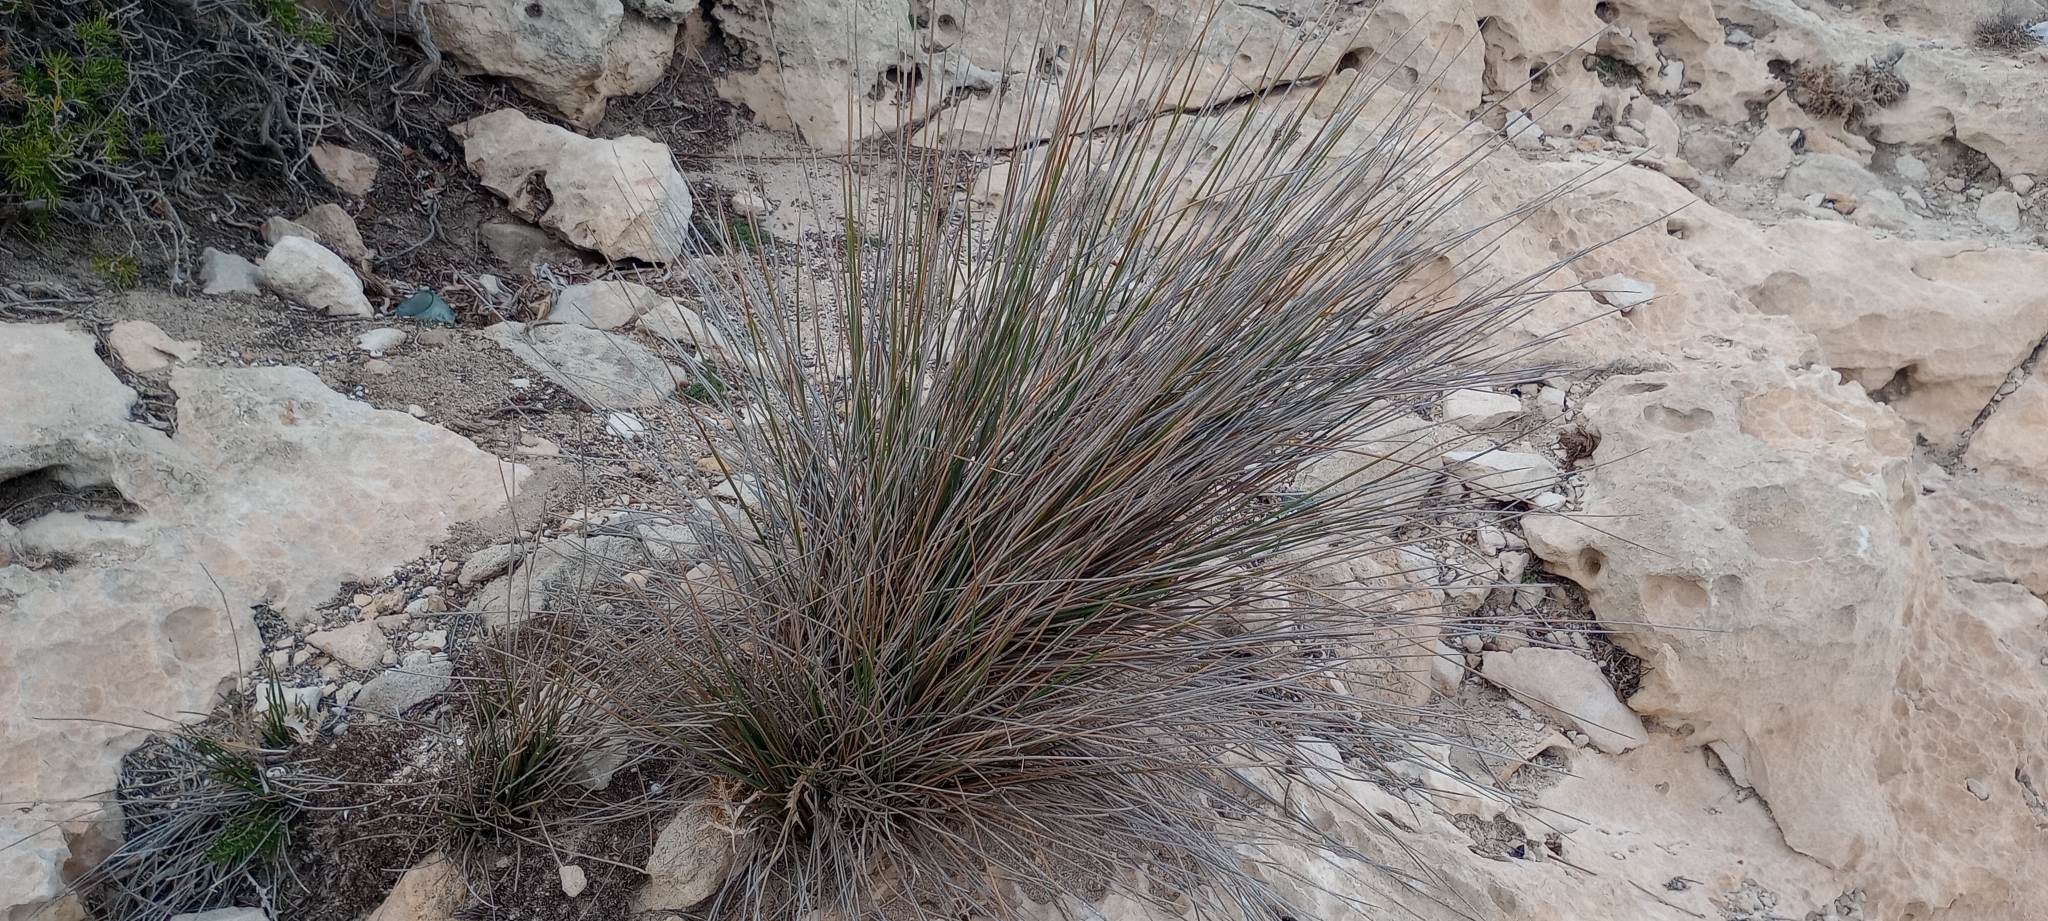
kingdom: Plantae
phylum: Tracheophyta
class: Liliopsida
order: Poales
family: Juncaceae
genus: Juncus
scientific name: Juncus acutus
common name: Sharp rush
